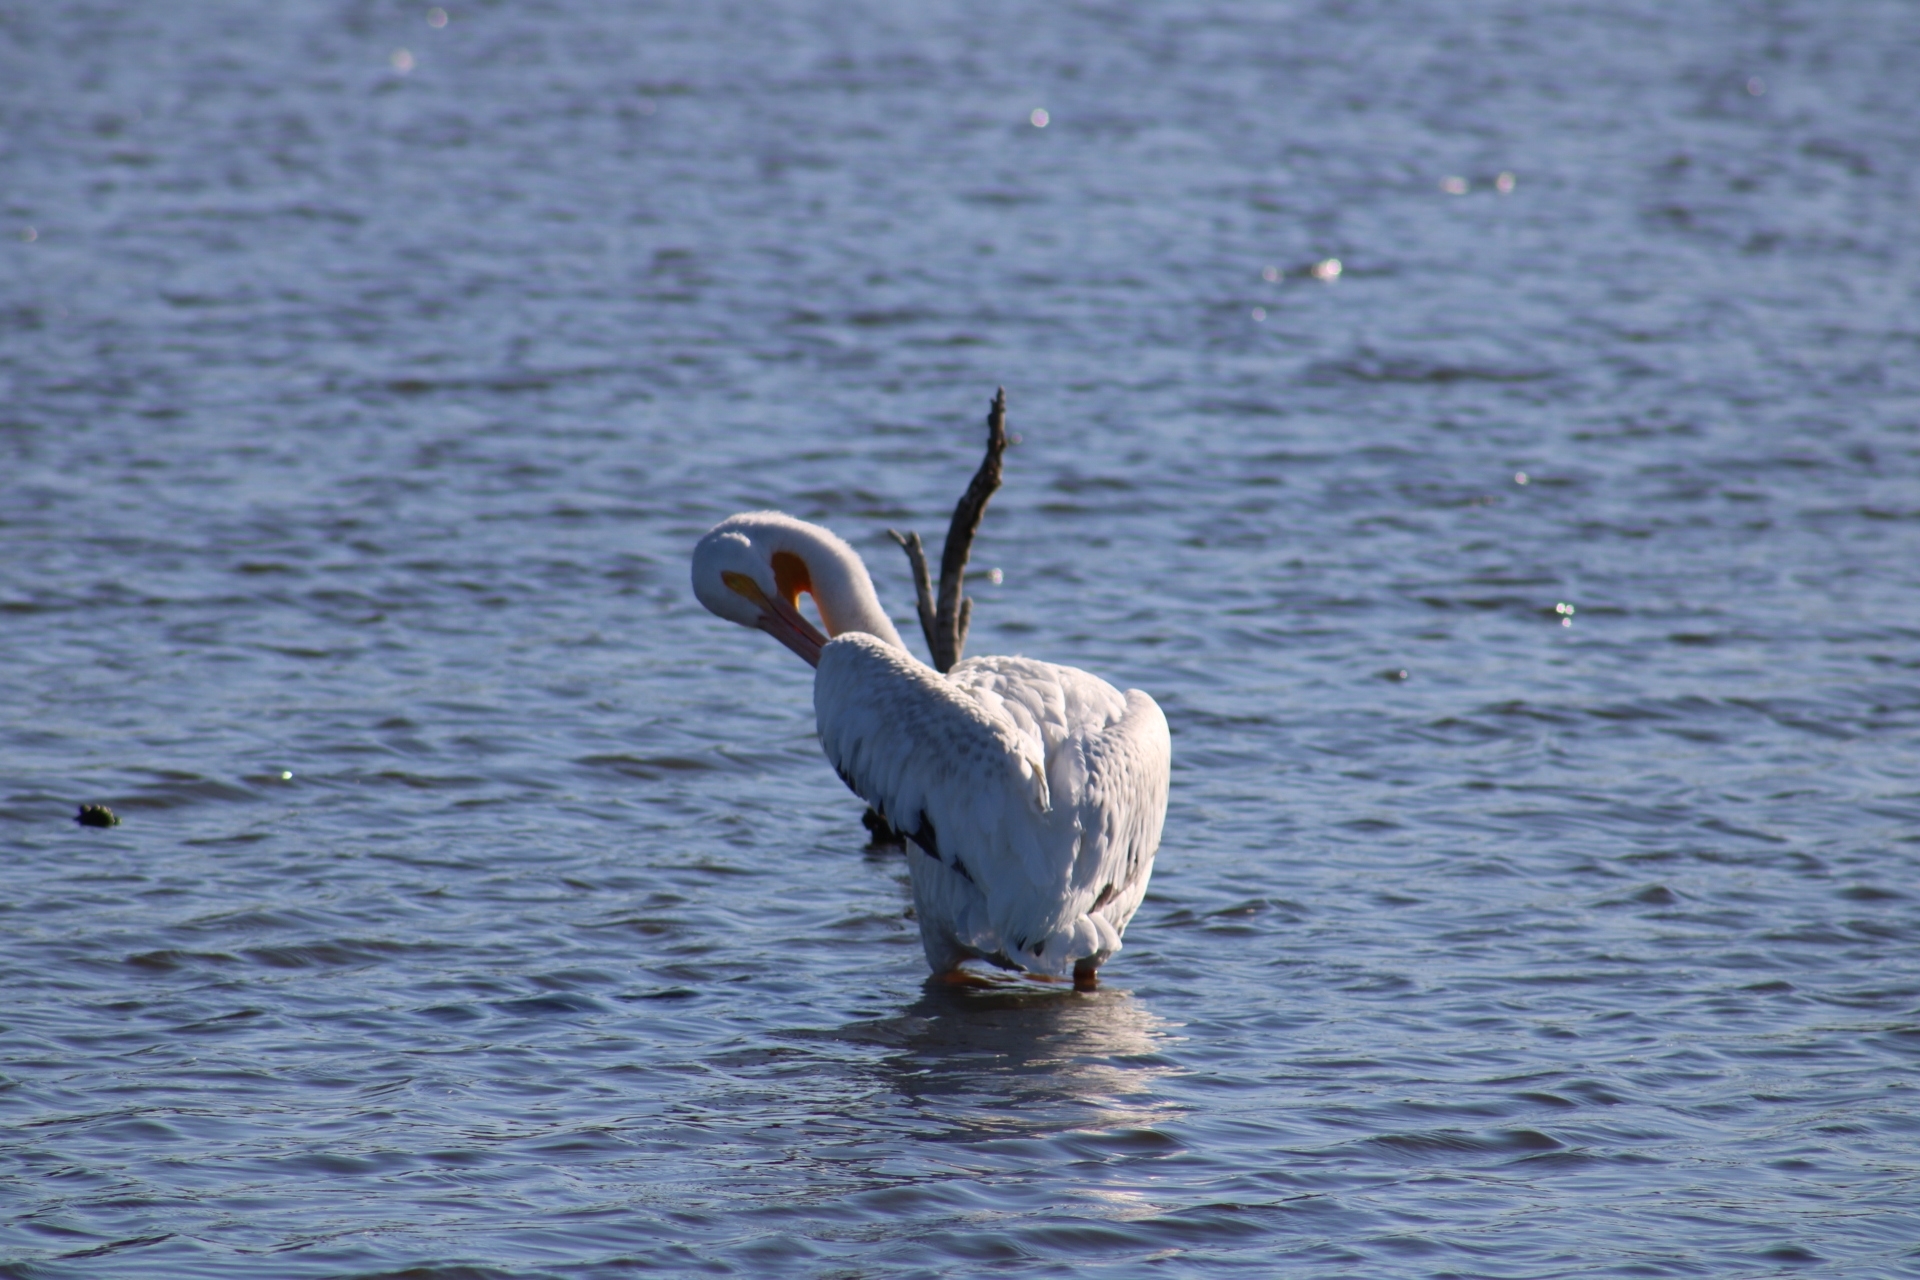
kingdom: Animalia
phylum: Chordata
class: Aves
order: Pelecaniformes
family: Pelecanidae
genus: Pelecanus
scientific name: Pelecanus erythrorhynchos
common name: American white pelican
